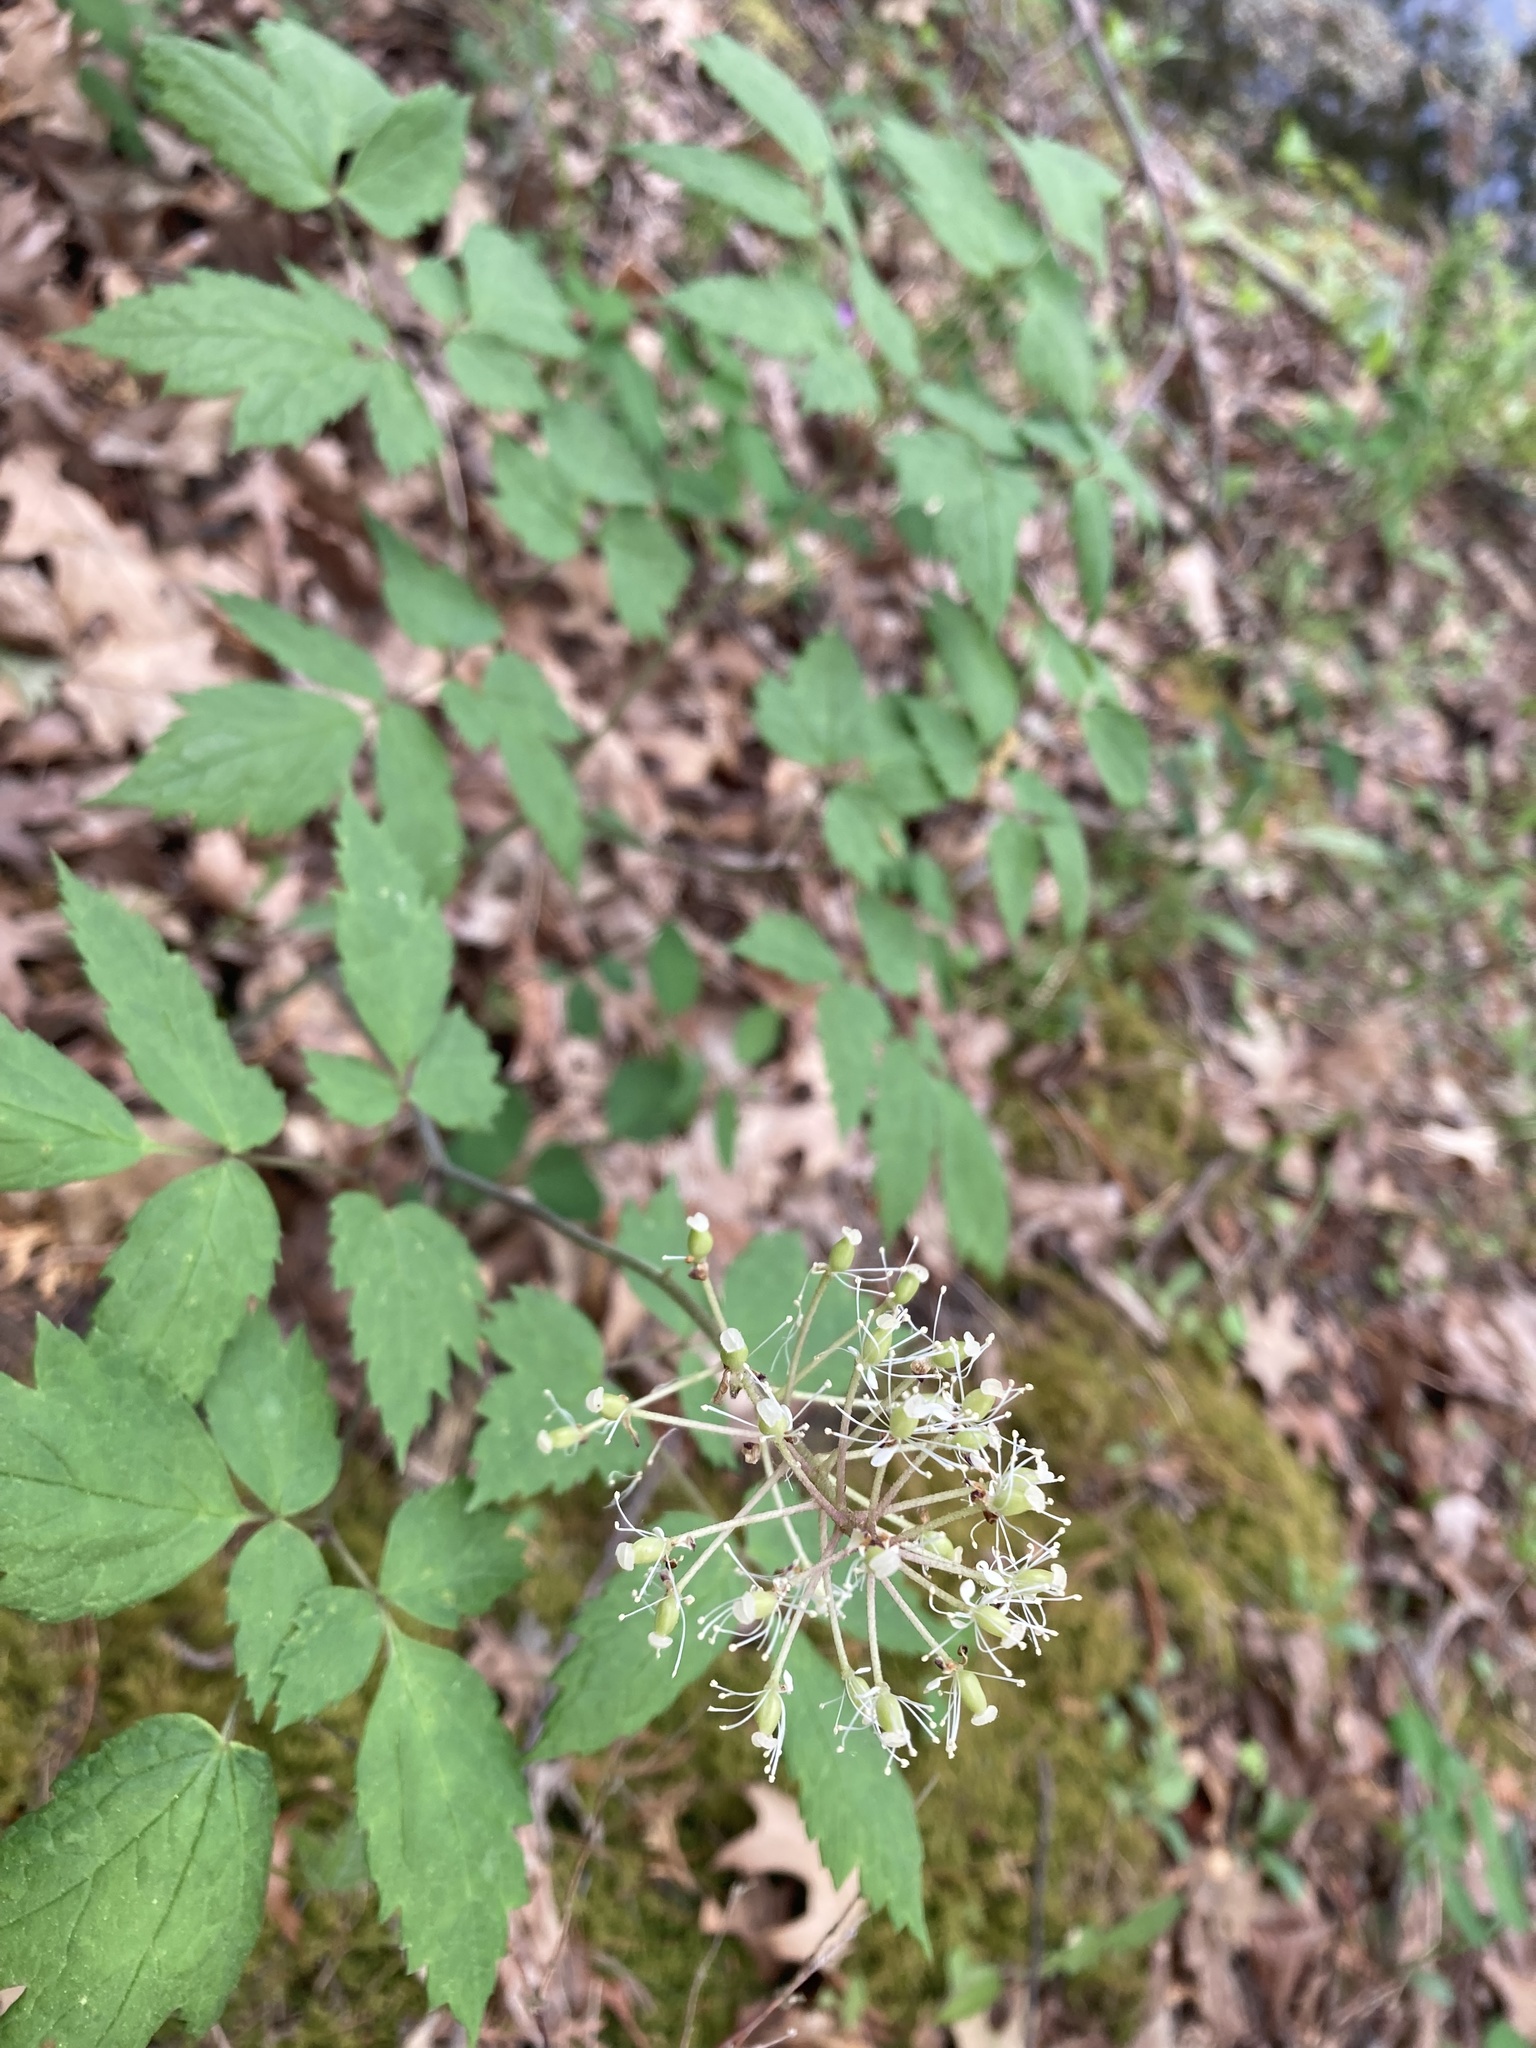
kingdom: Plantae
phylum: Tracheophyta
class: Magnoliopsida
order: Ranunculales
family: Ranunculaceae
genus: Actaea
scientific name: Actaea rubra
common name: Red baneberry
